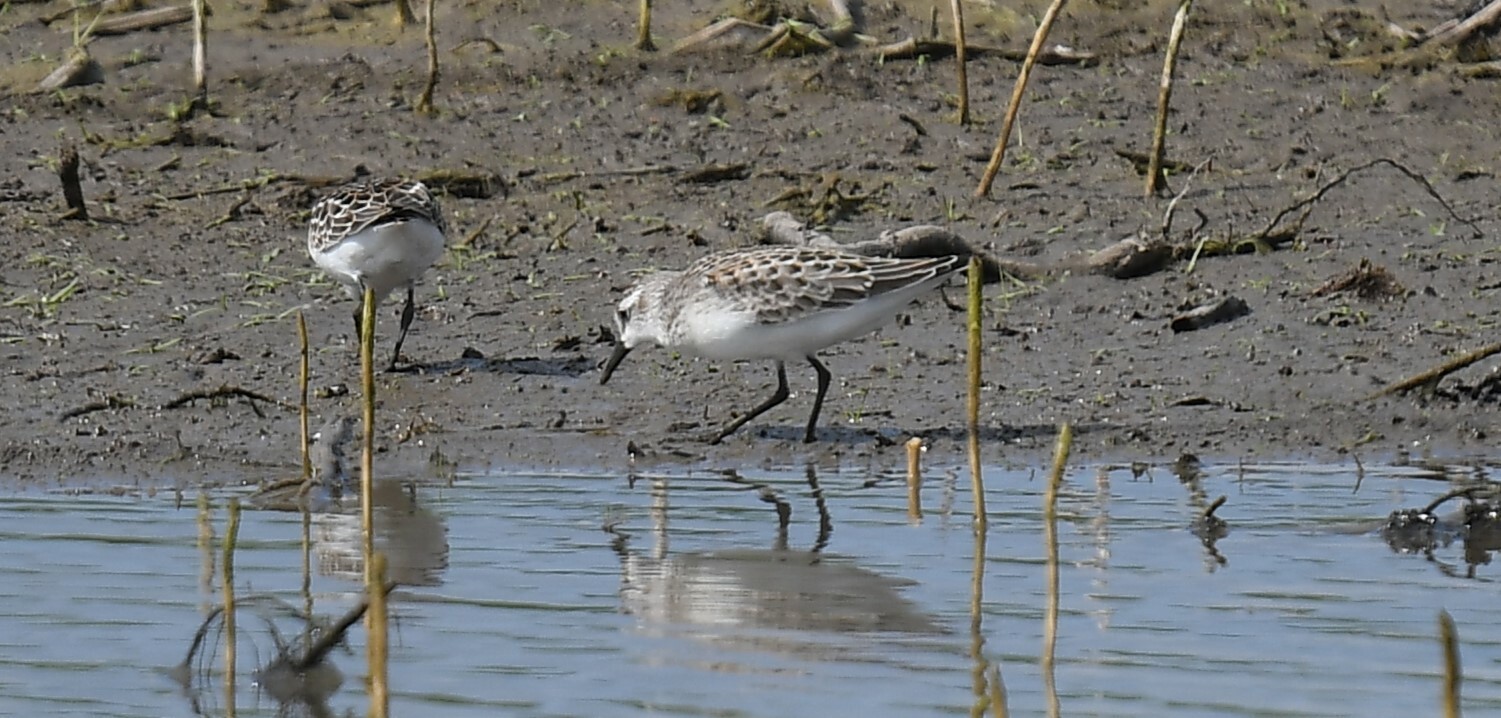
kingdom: Animalia
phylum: Chordata
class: Aves
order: Charadriiformes
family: Scolopacidae
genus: Calidris
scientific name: Calidris pusilla
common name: Semipalmated sandpiper
